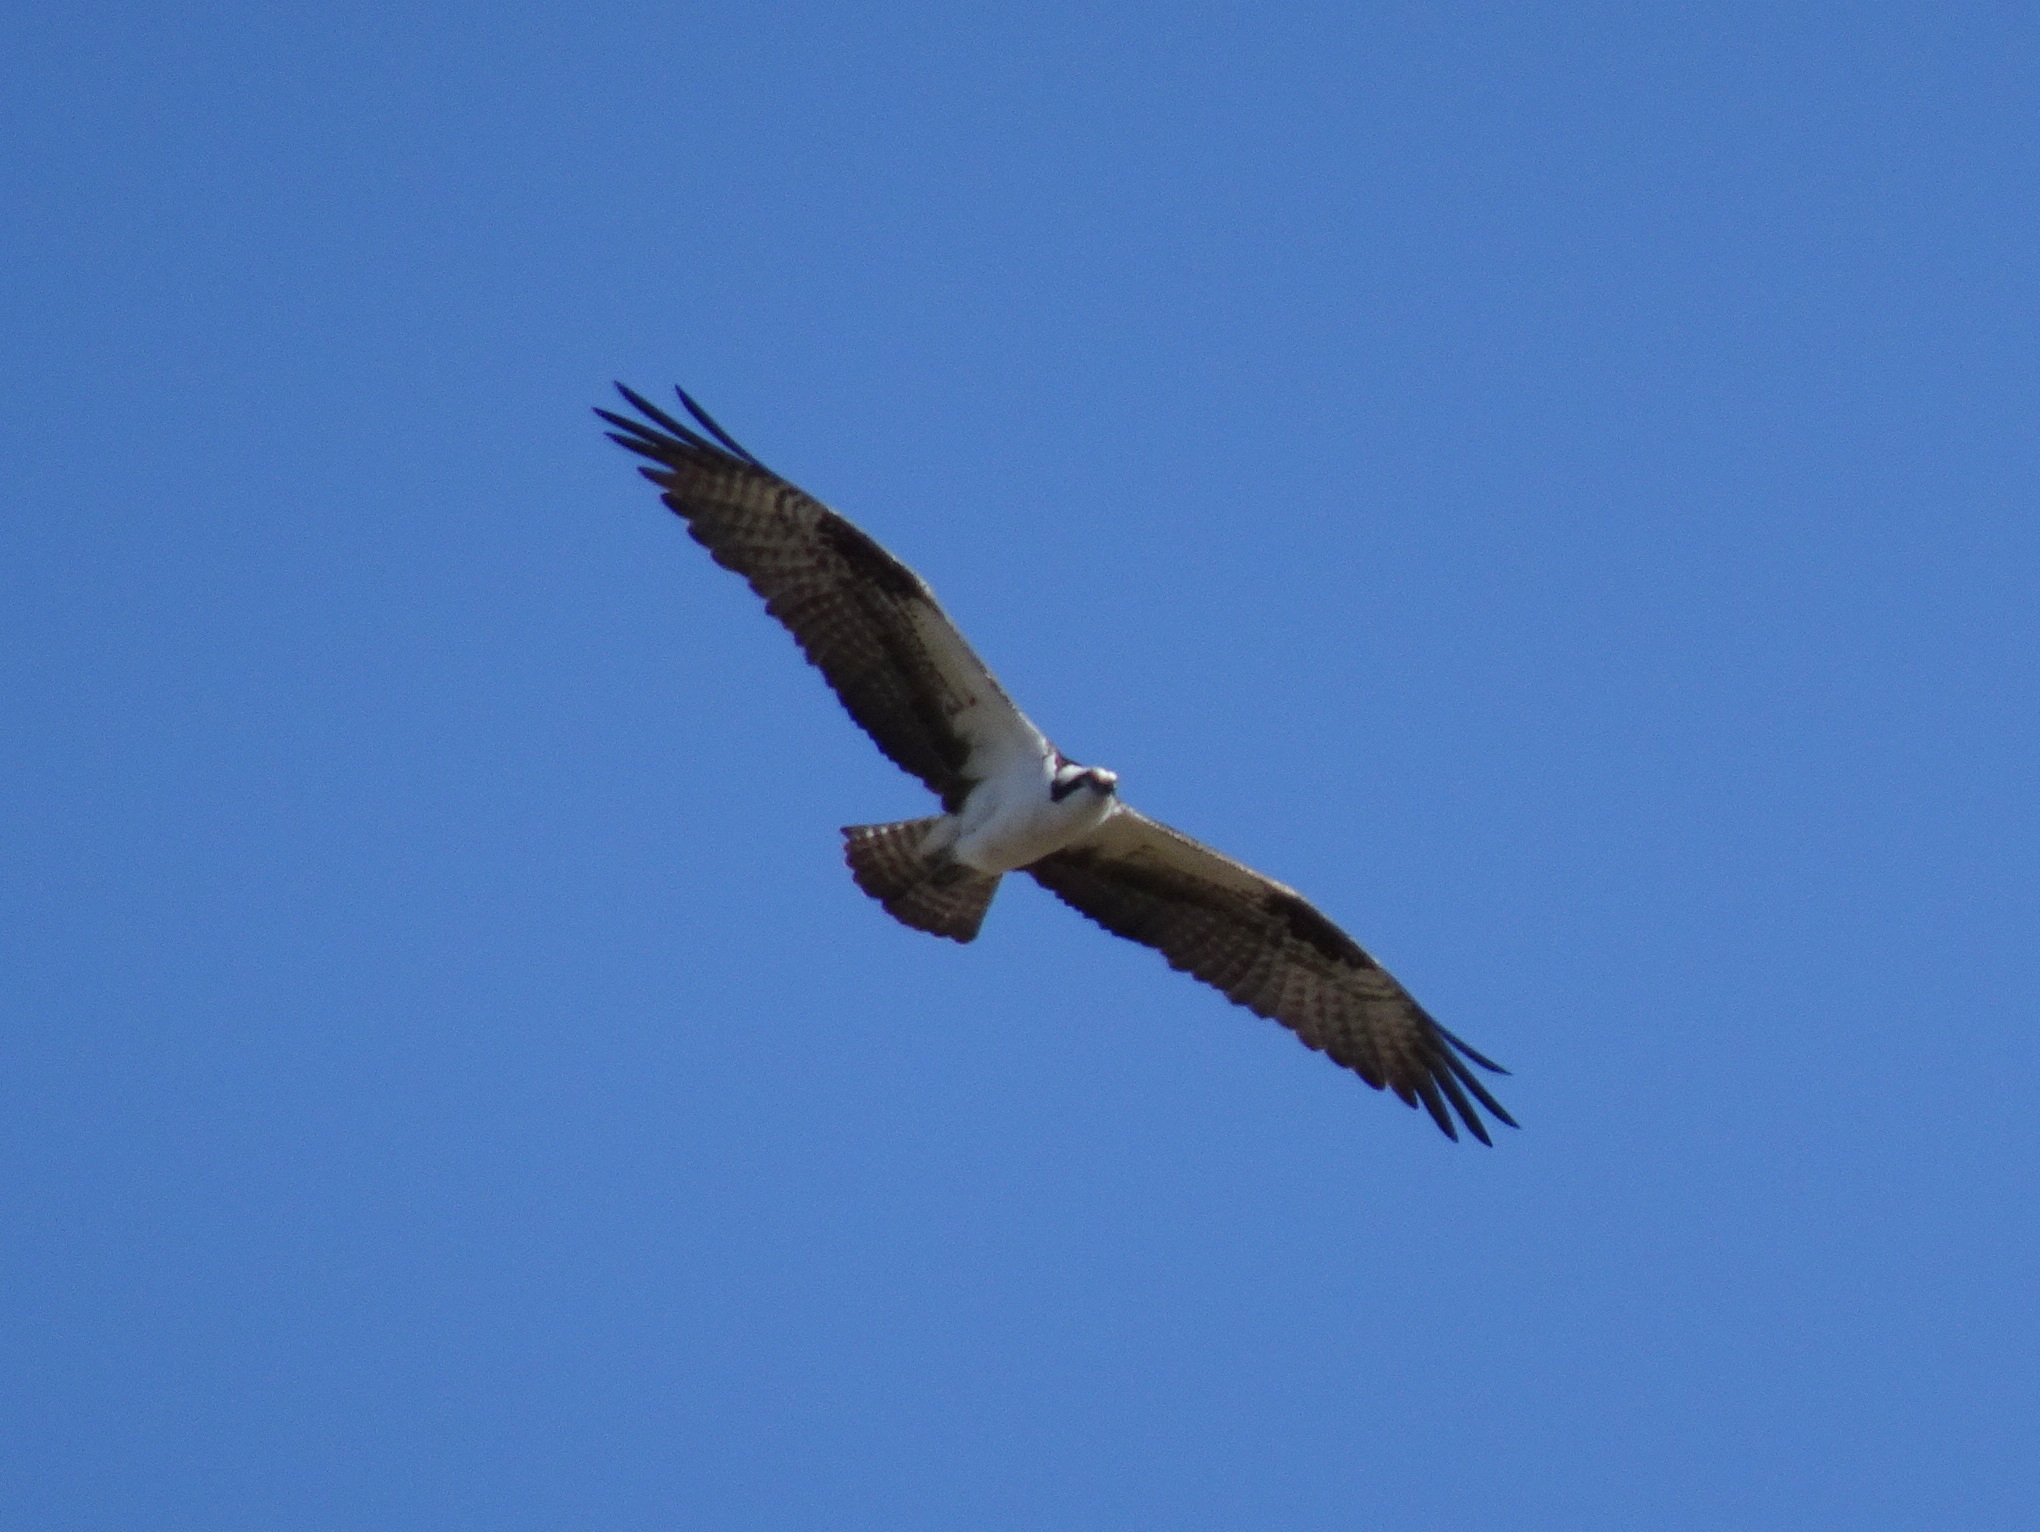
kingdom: Animalia
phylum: Chordata
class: Aves
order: Accipitriformes
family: Pandionidae
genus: Pandion
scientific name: Pandion haliaetus
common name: Osprey
